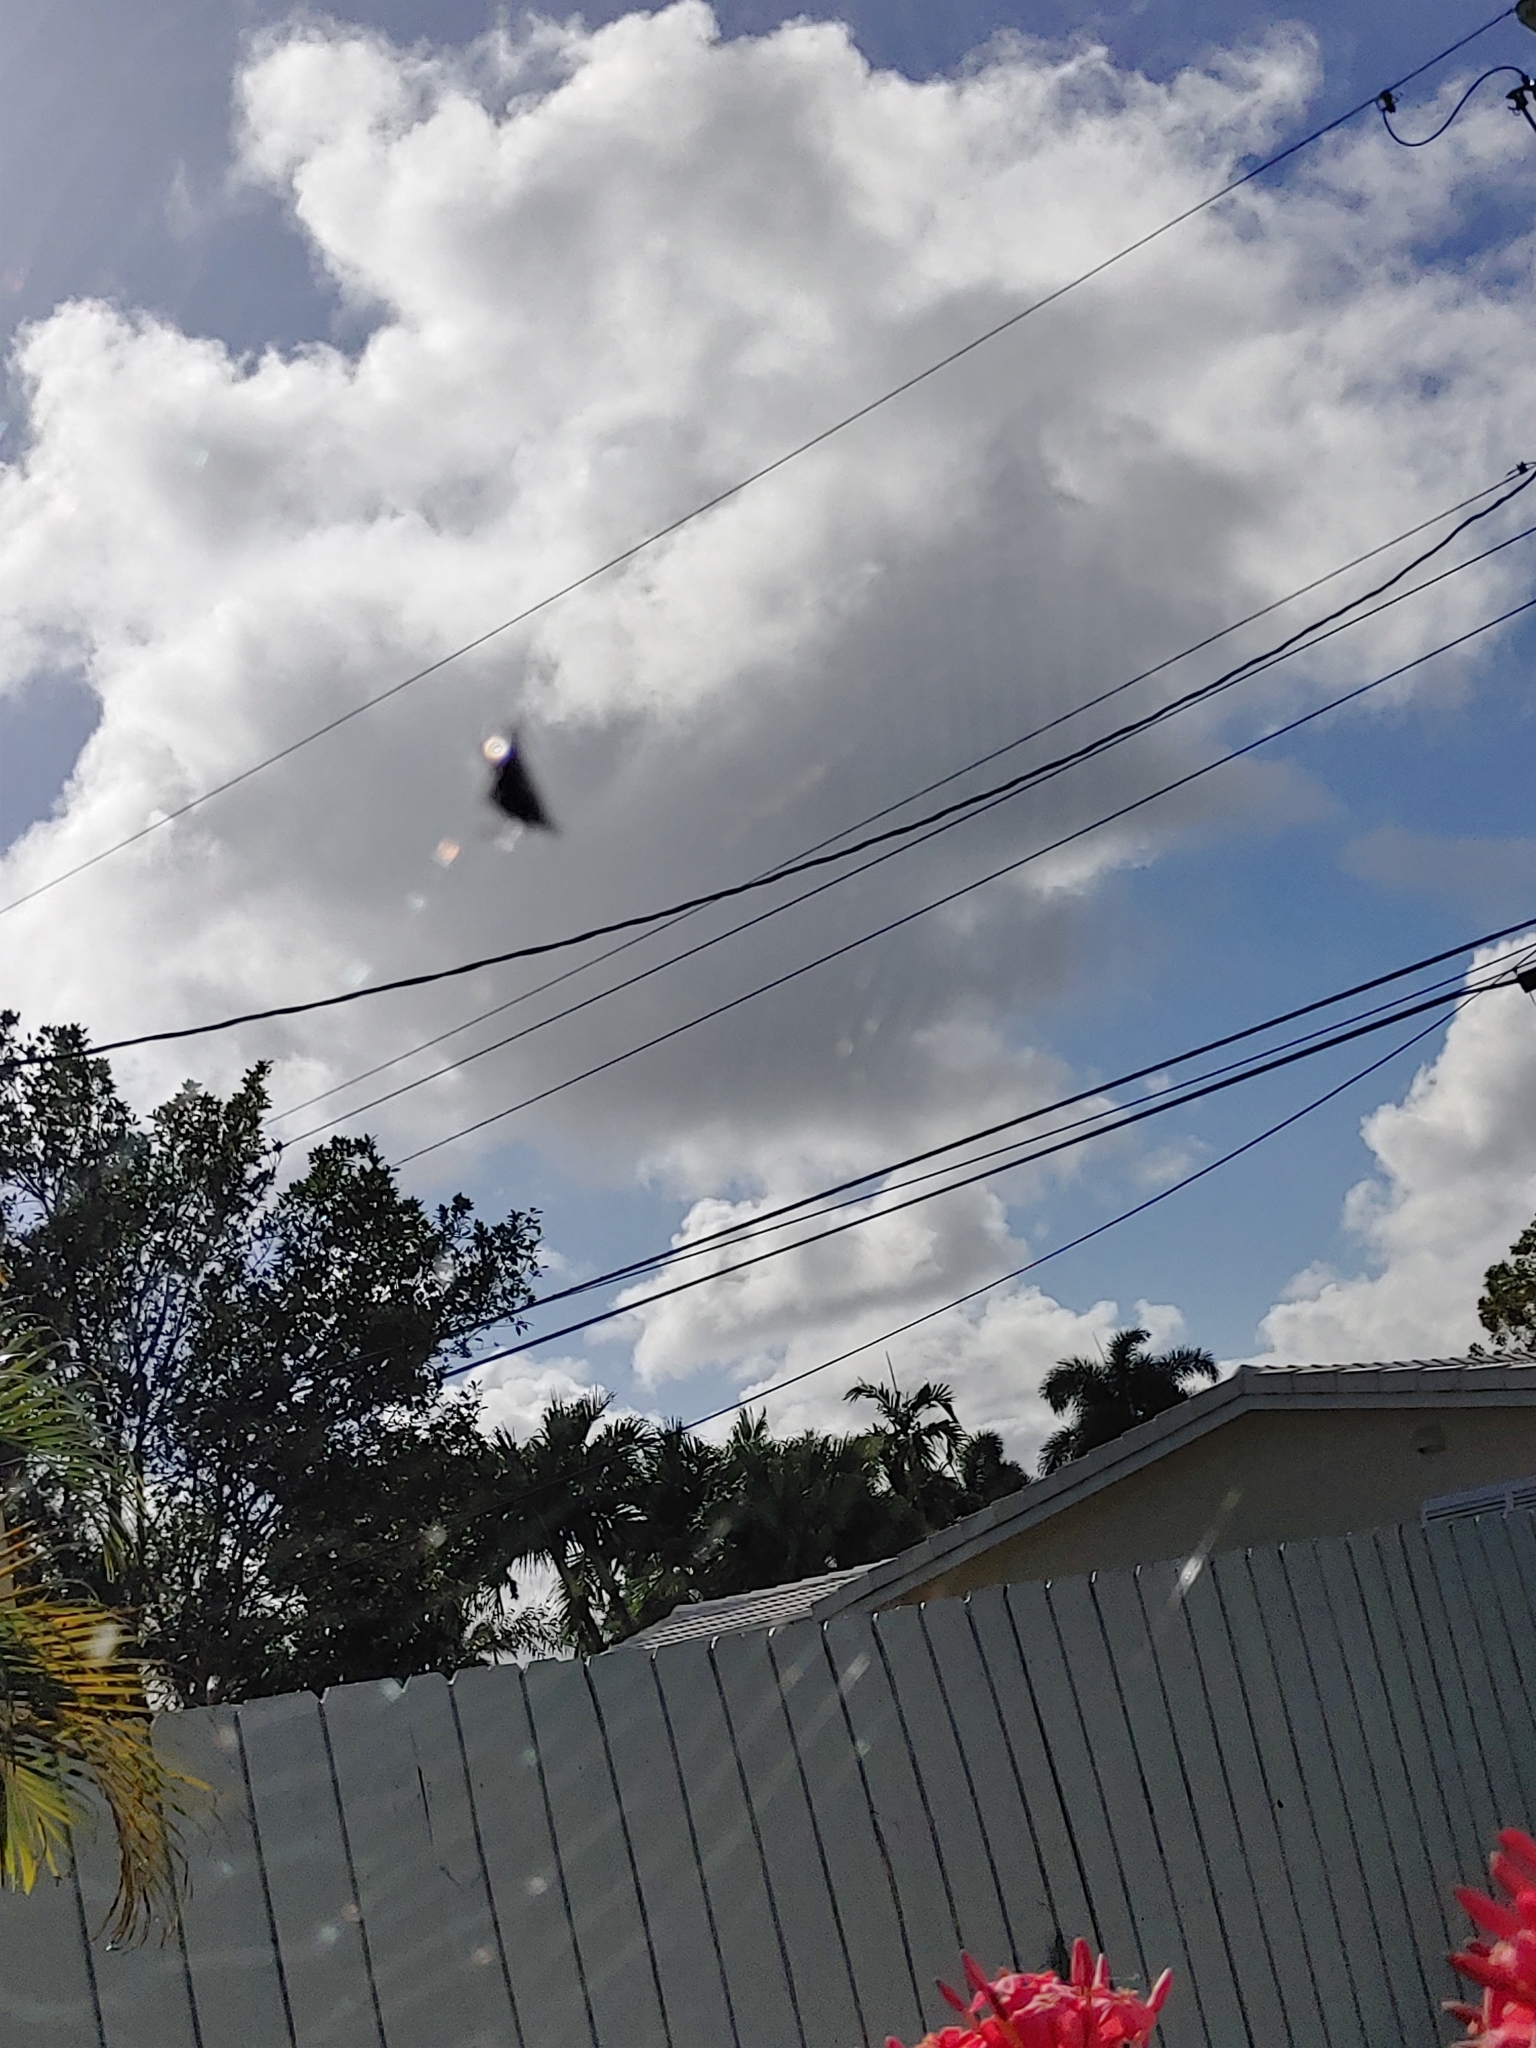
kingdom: Animalia
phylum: Arthropoda
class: Arachnida
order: Araneae
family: Araneidae
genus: Gasteracantha
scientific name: Gasteracantha cancriformis
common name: Orb weavers
